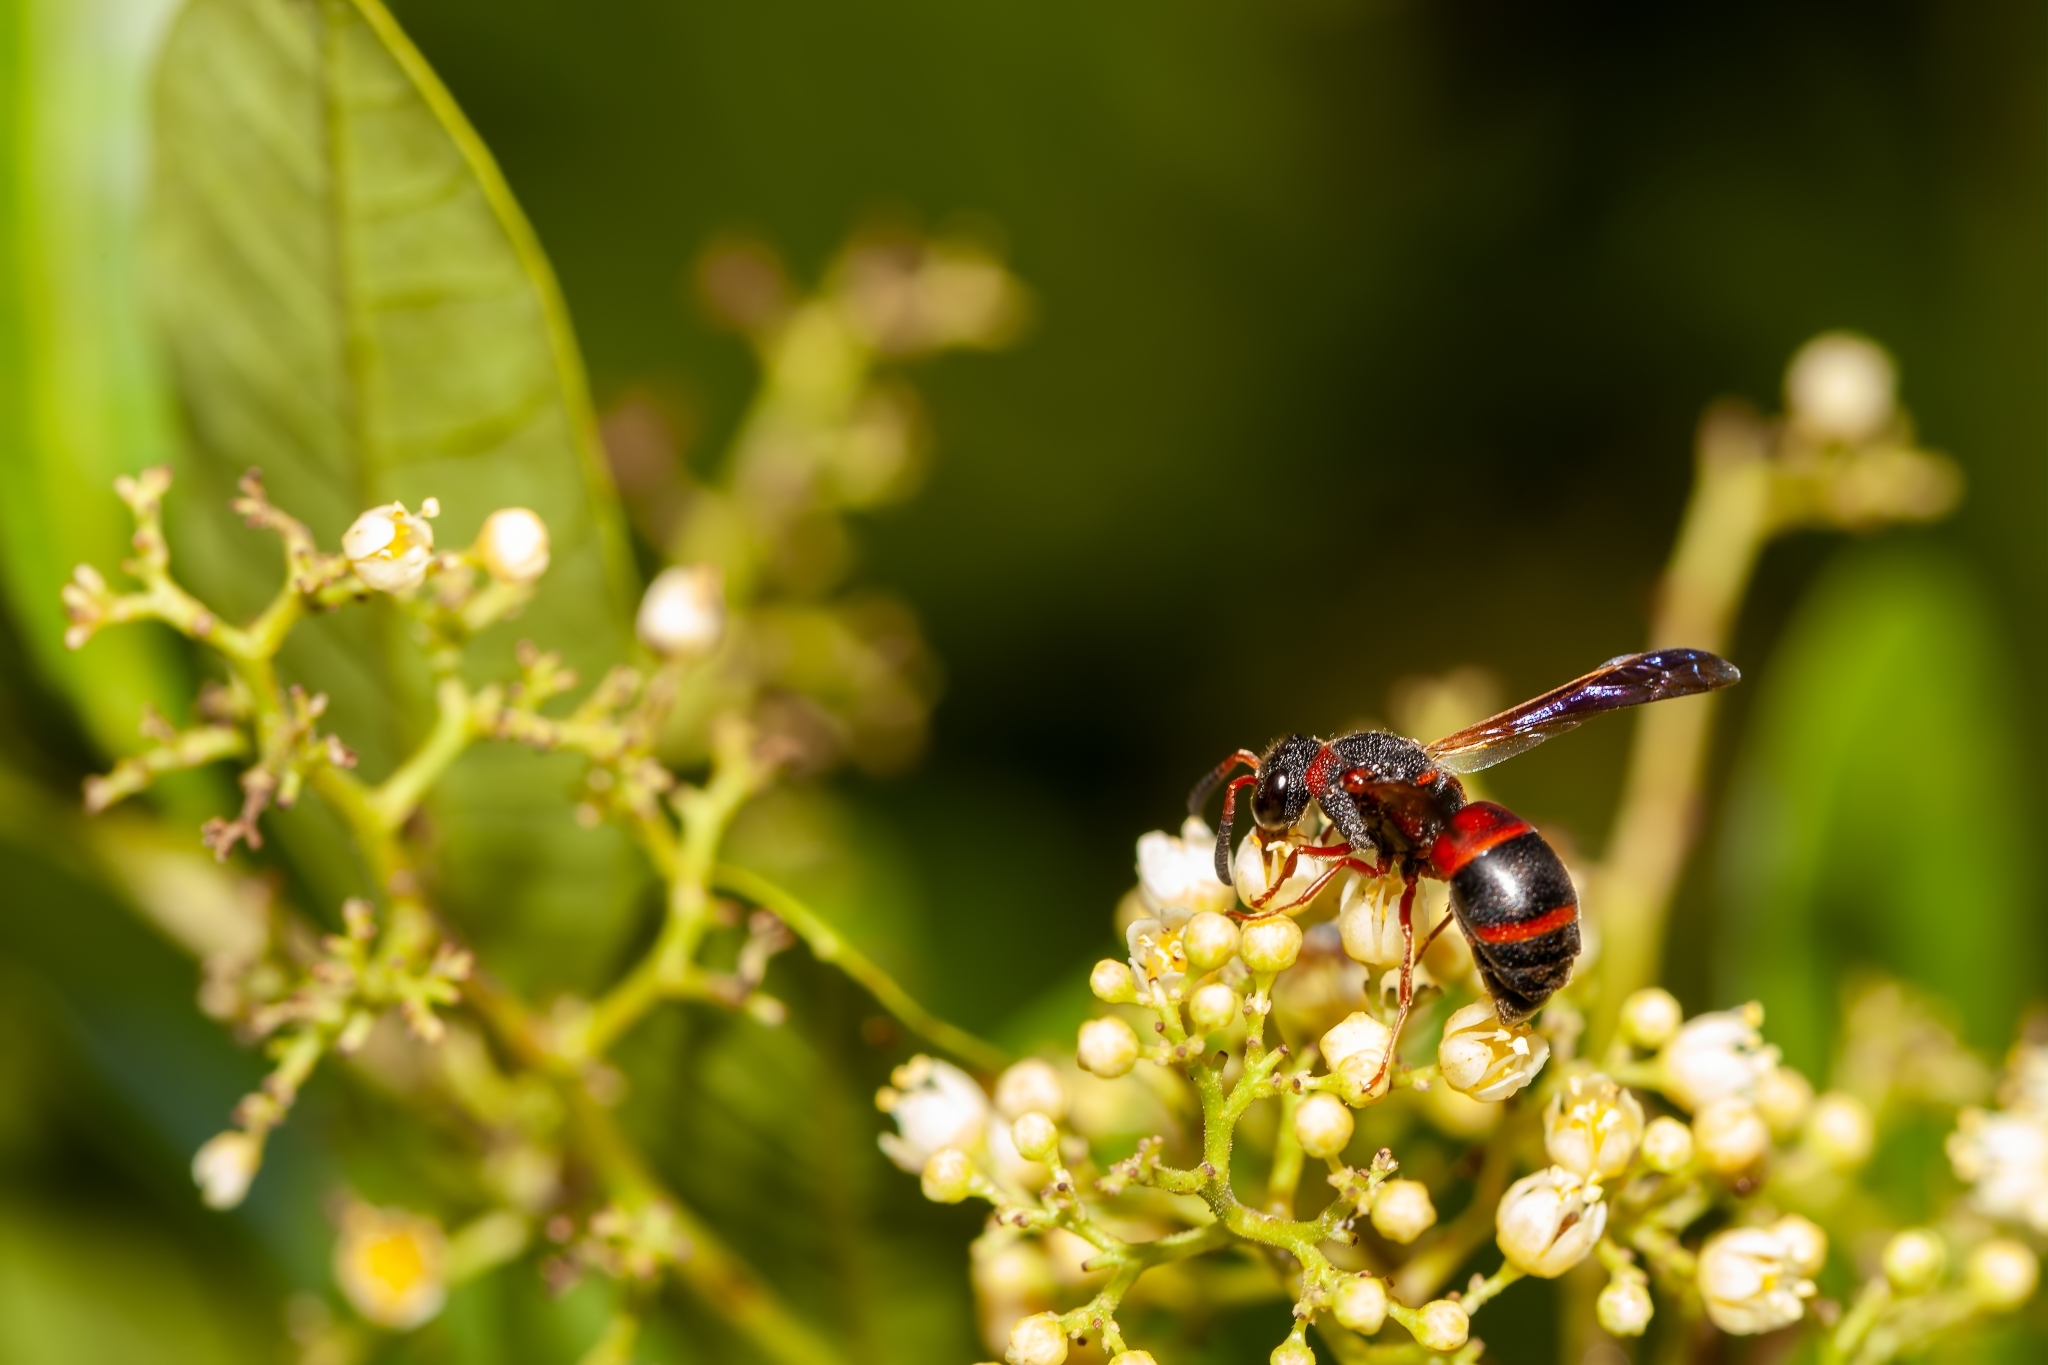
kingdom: Animalia
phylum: Arthropoda
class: Insecta
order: Hymenoptera
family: Eumenidae
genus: Pachodynerus
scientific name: Pachodynerus erynnis
